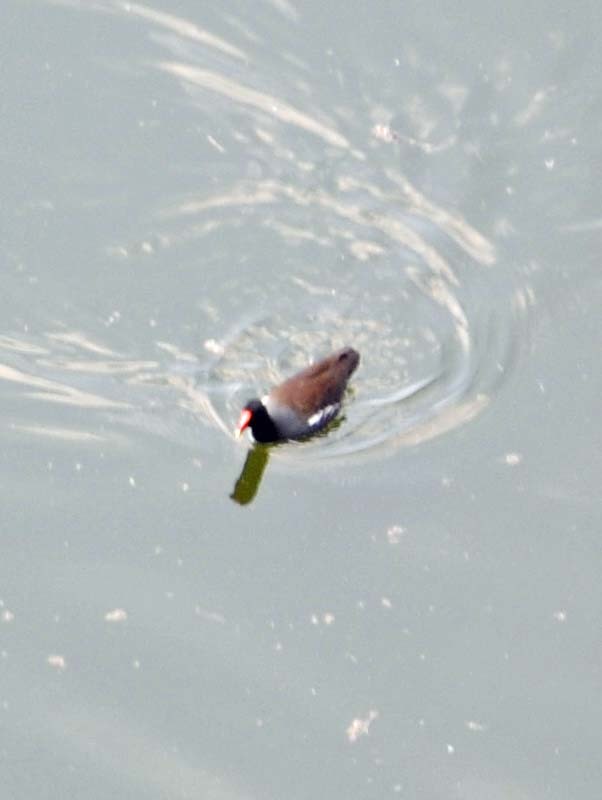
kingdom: Animalia
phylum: Chordata
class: Aves
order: Gruiformes
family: Rallidae
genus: Gallinula
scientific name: Gallinula chloropus
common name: Common moorhen
